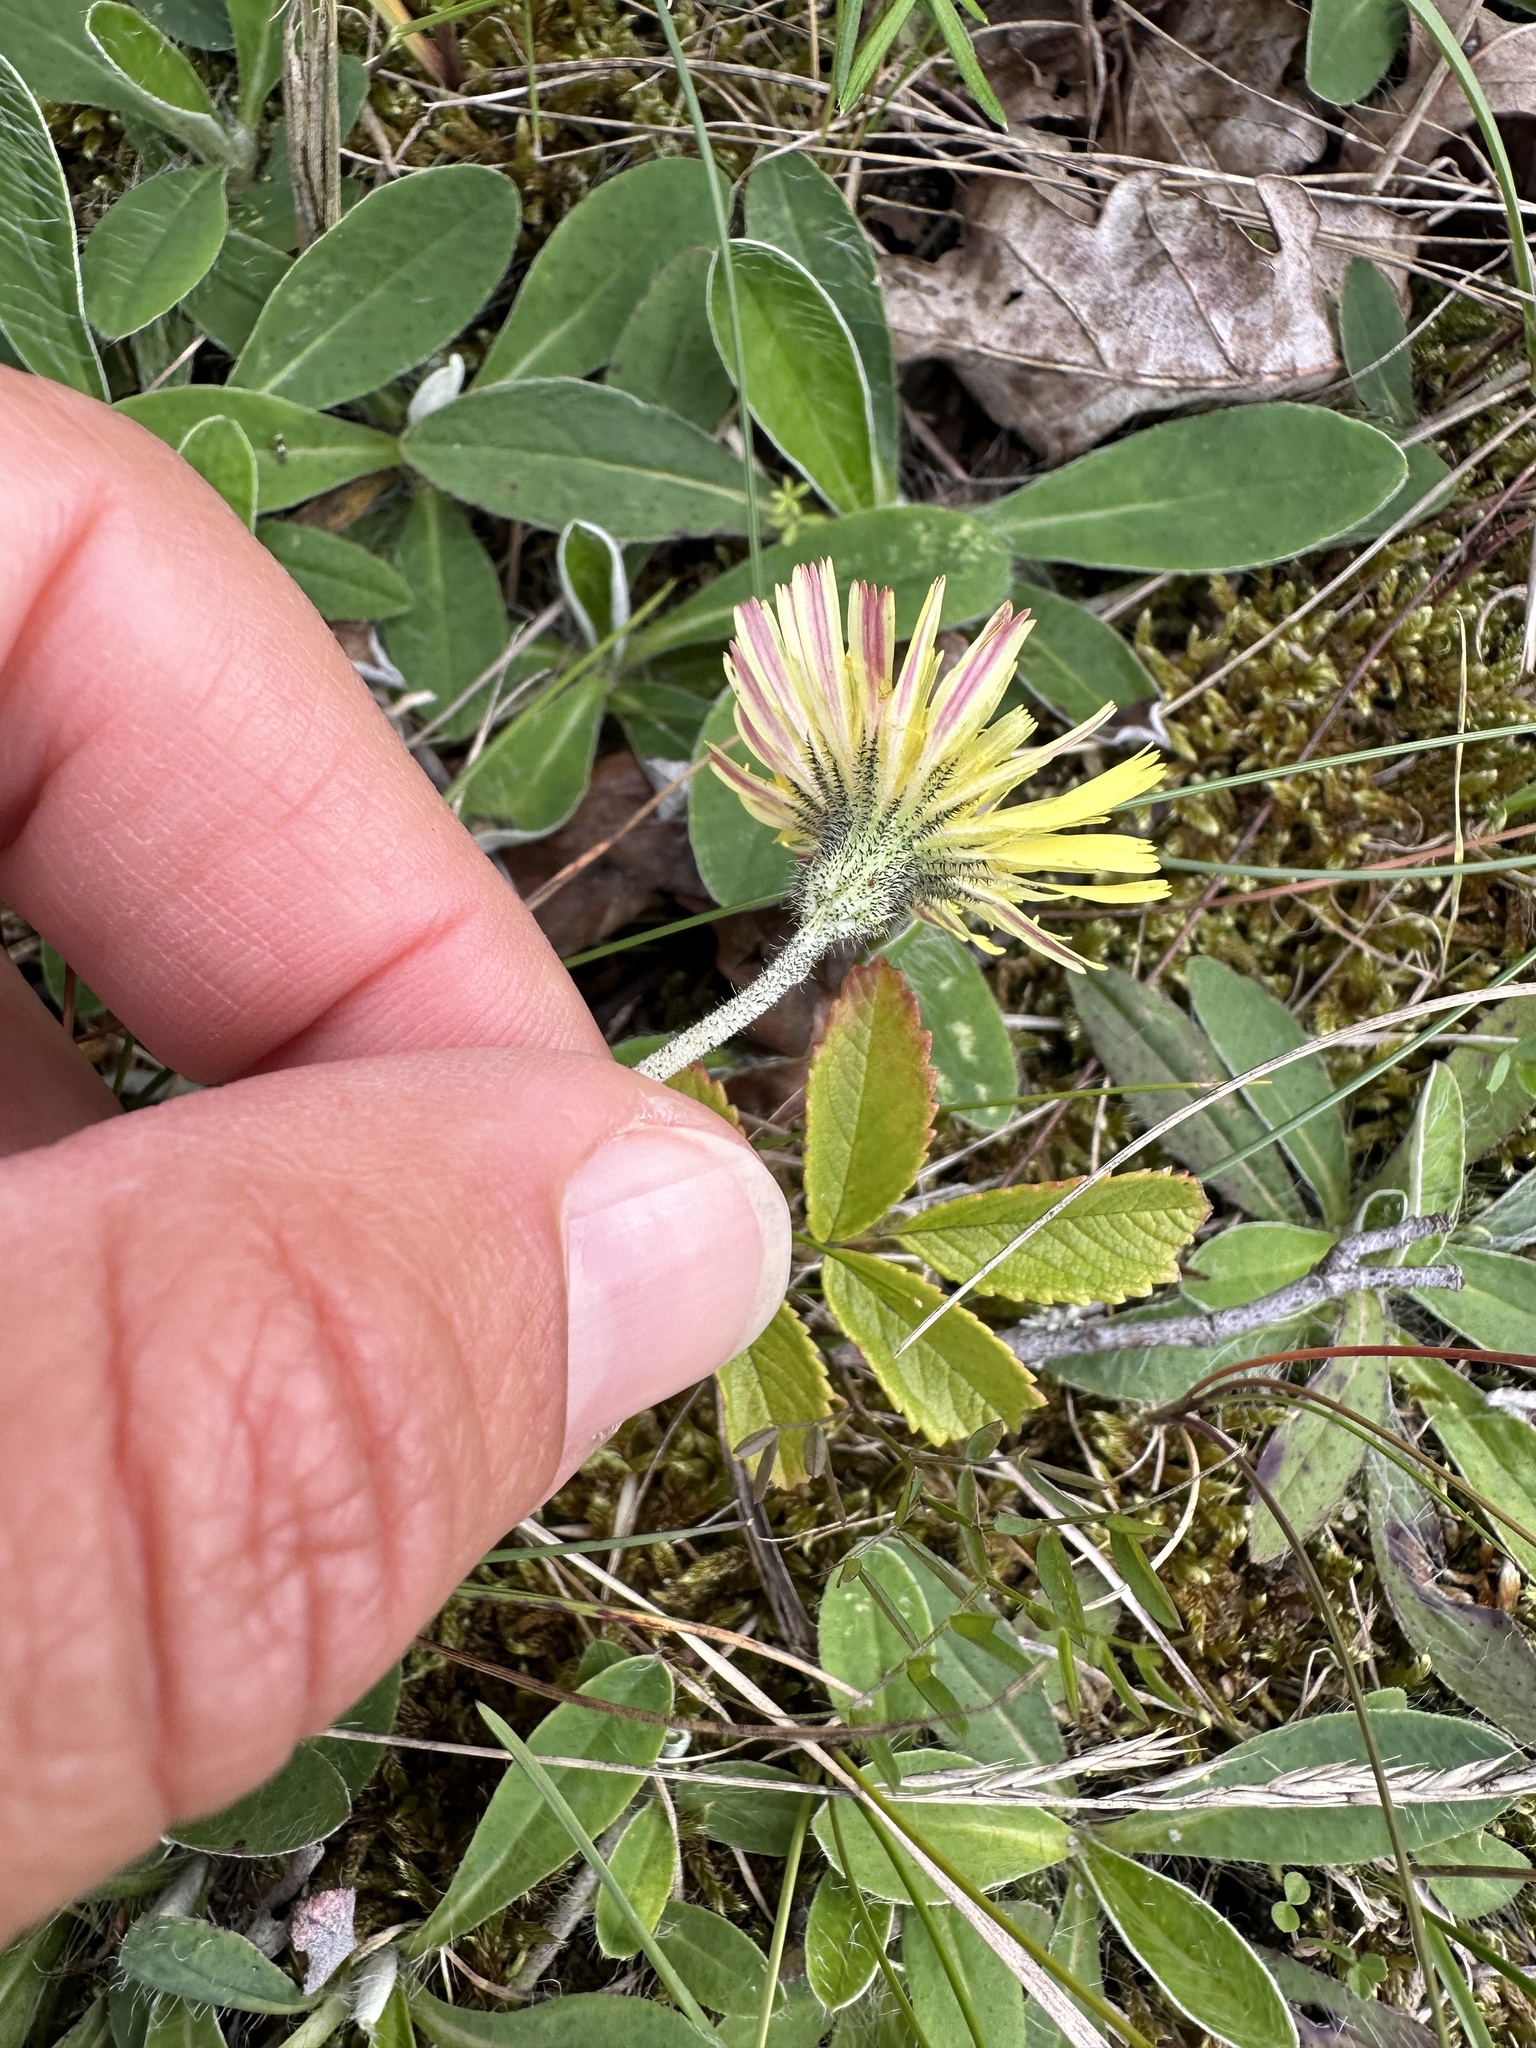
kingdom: Plantae
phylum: Tracheophyta
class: Magnoliopsida
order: Asterales
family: Asteraceae
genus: Pilosella
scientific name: Pilosella officinarum
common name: Mouse-ear hawkweed
